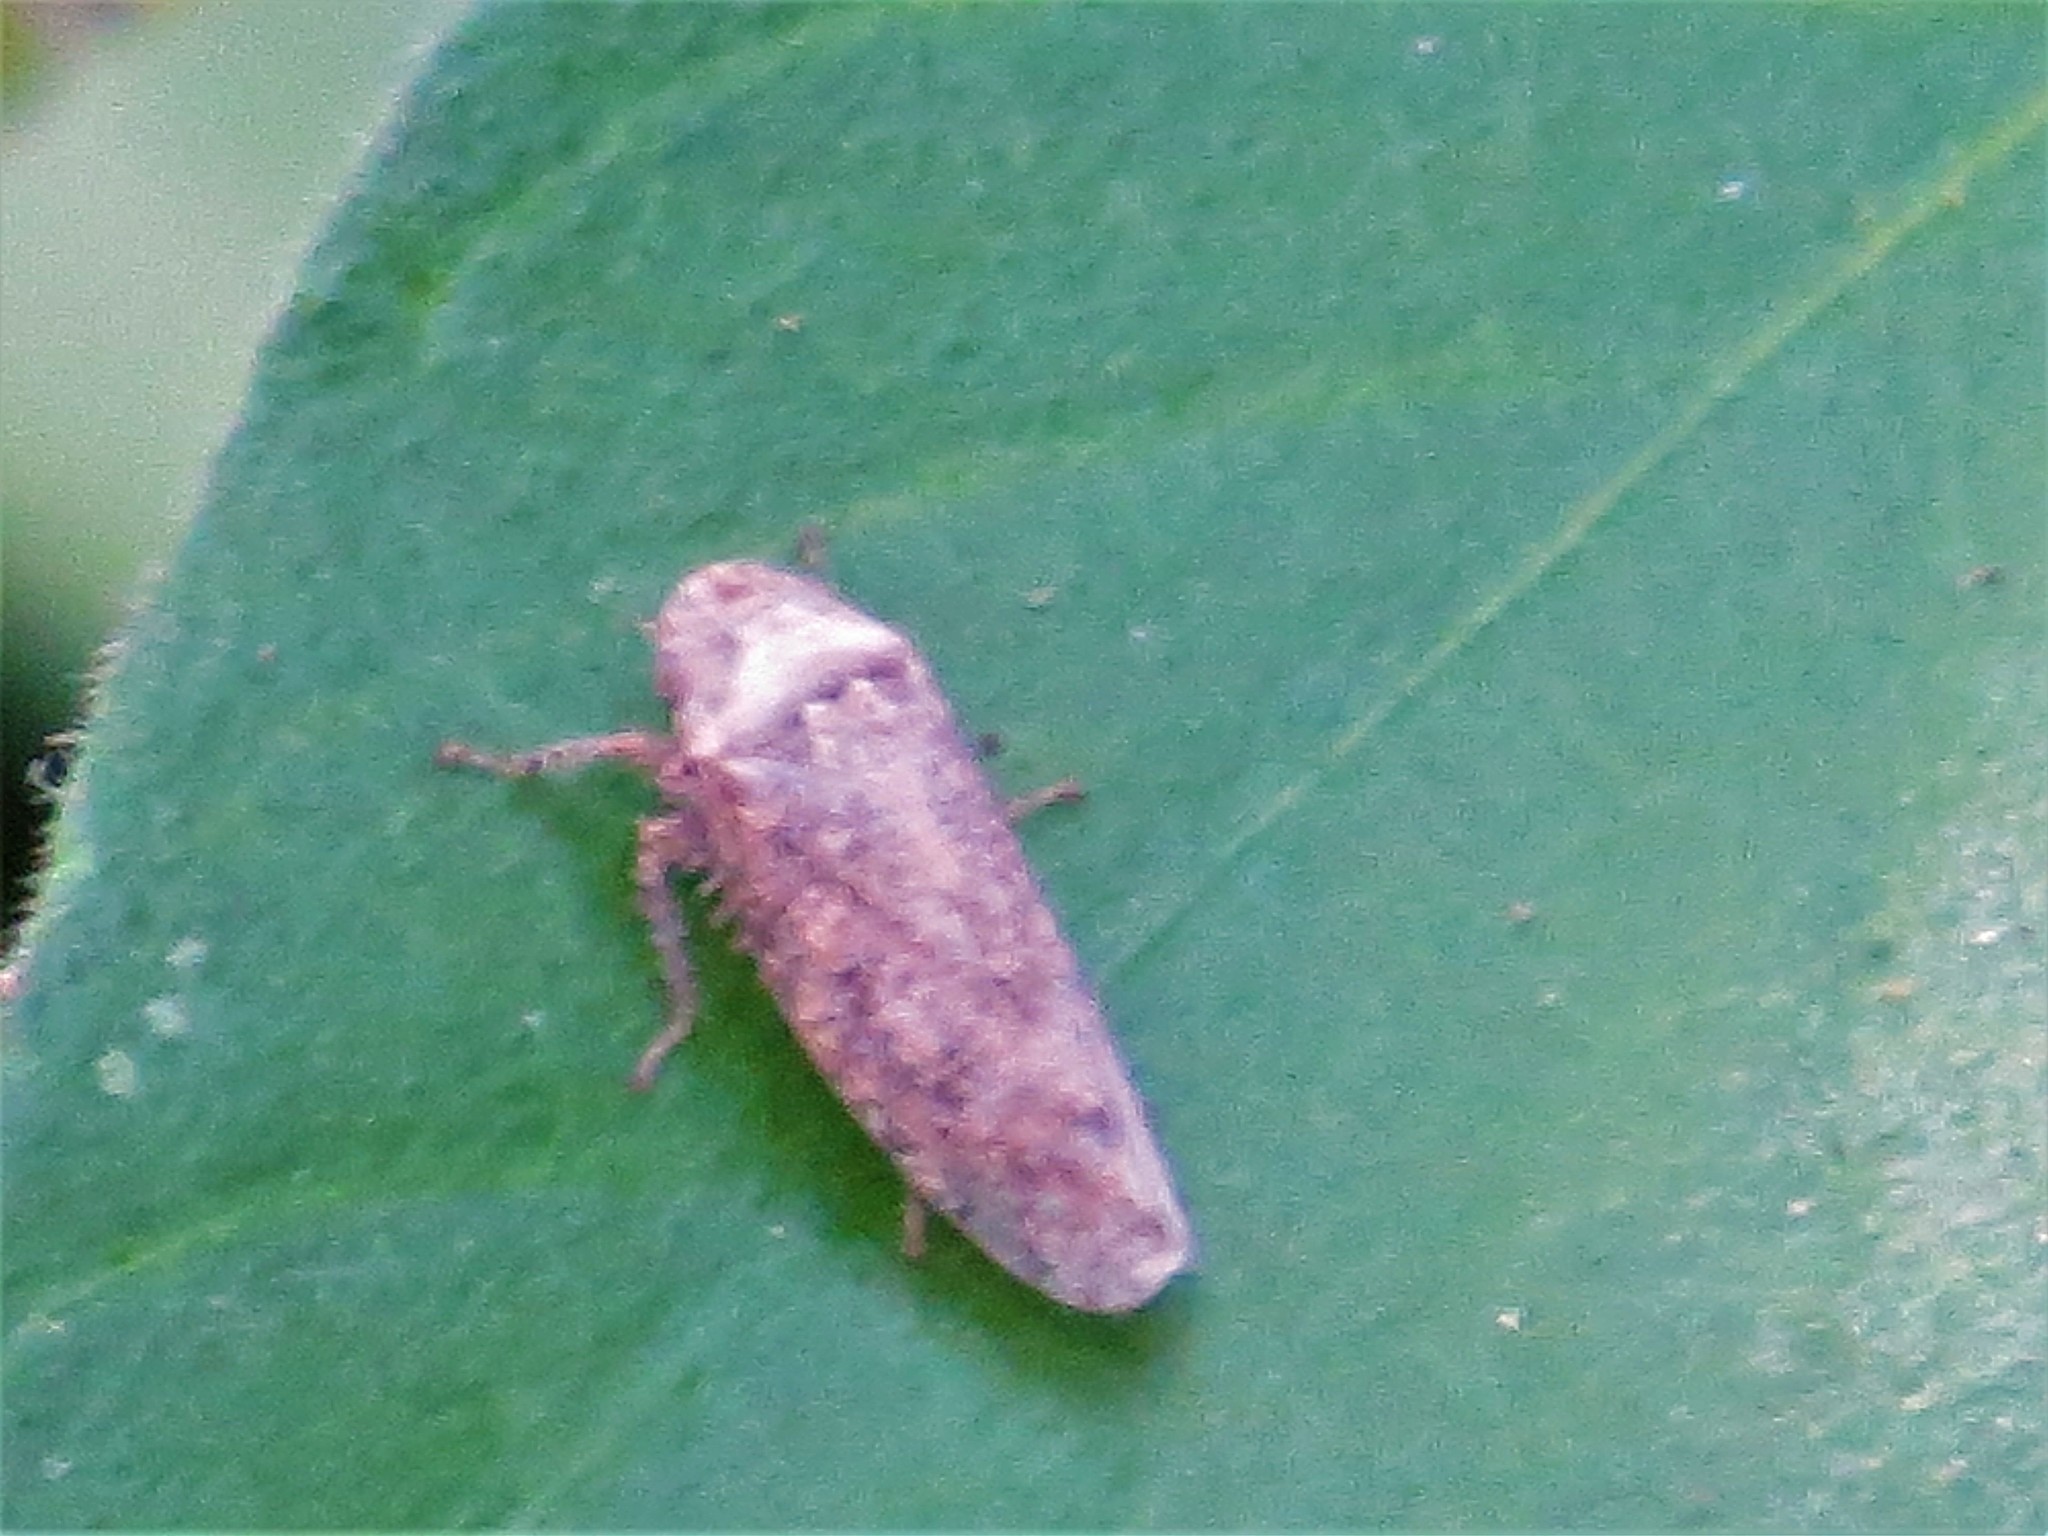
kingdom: Animalia
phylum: Arthropoda
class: Insecta
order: Hemiptera
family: Cicadellidae
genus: Curtara
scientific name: Curtara insularis
